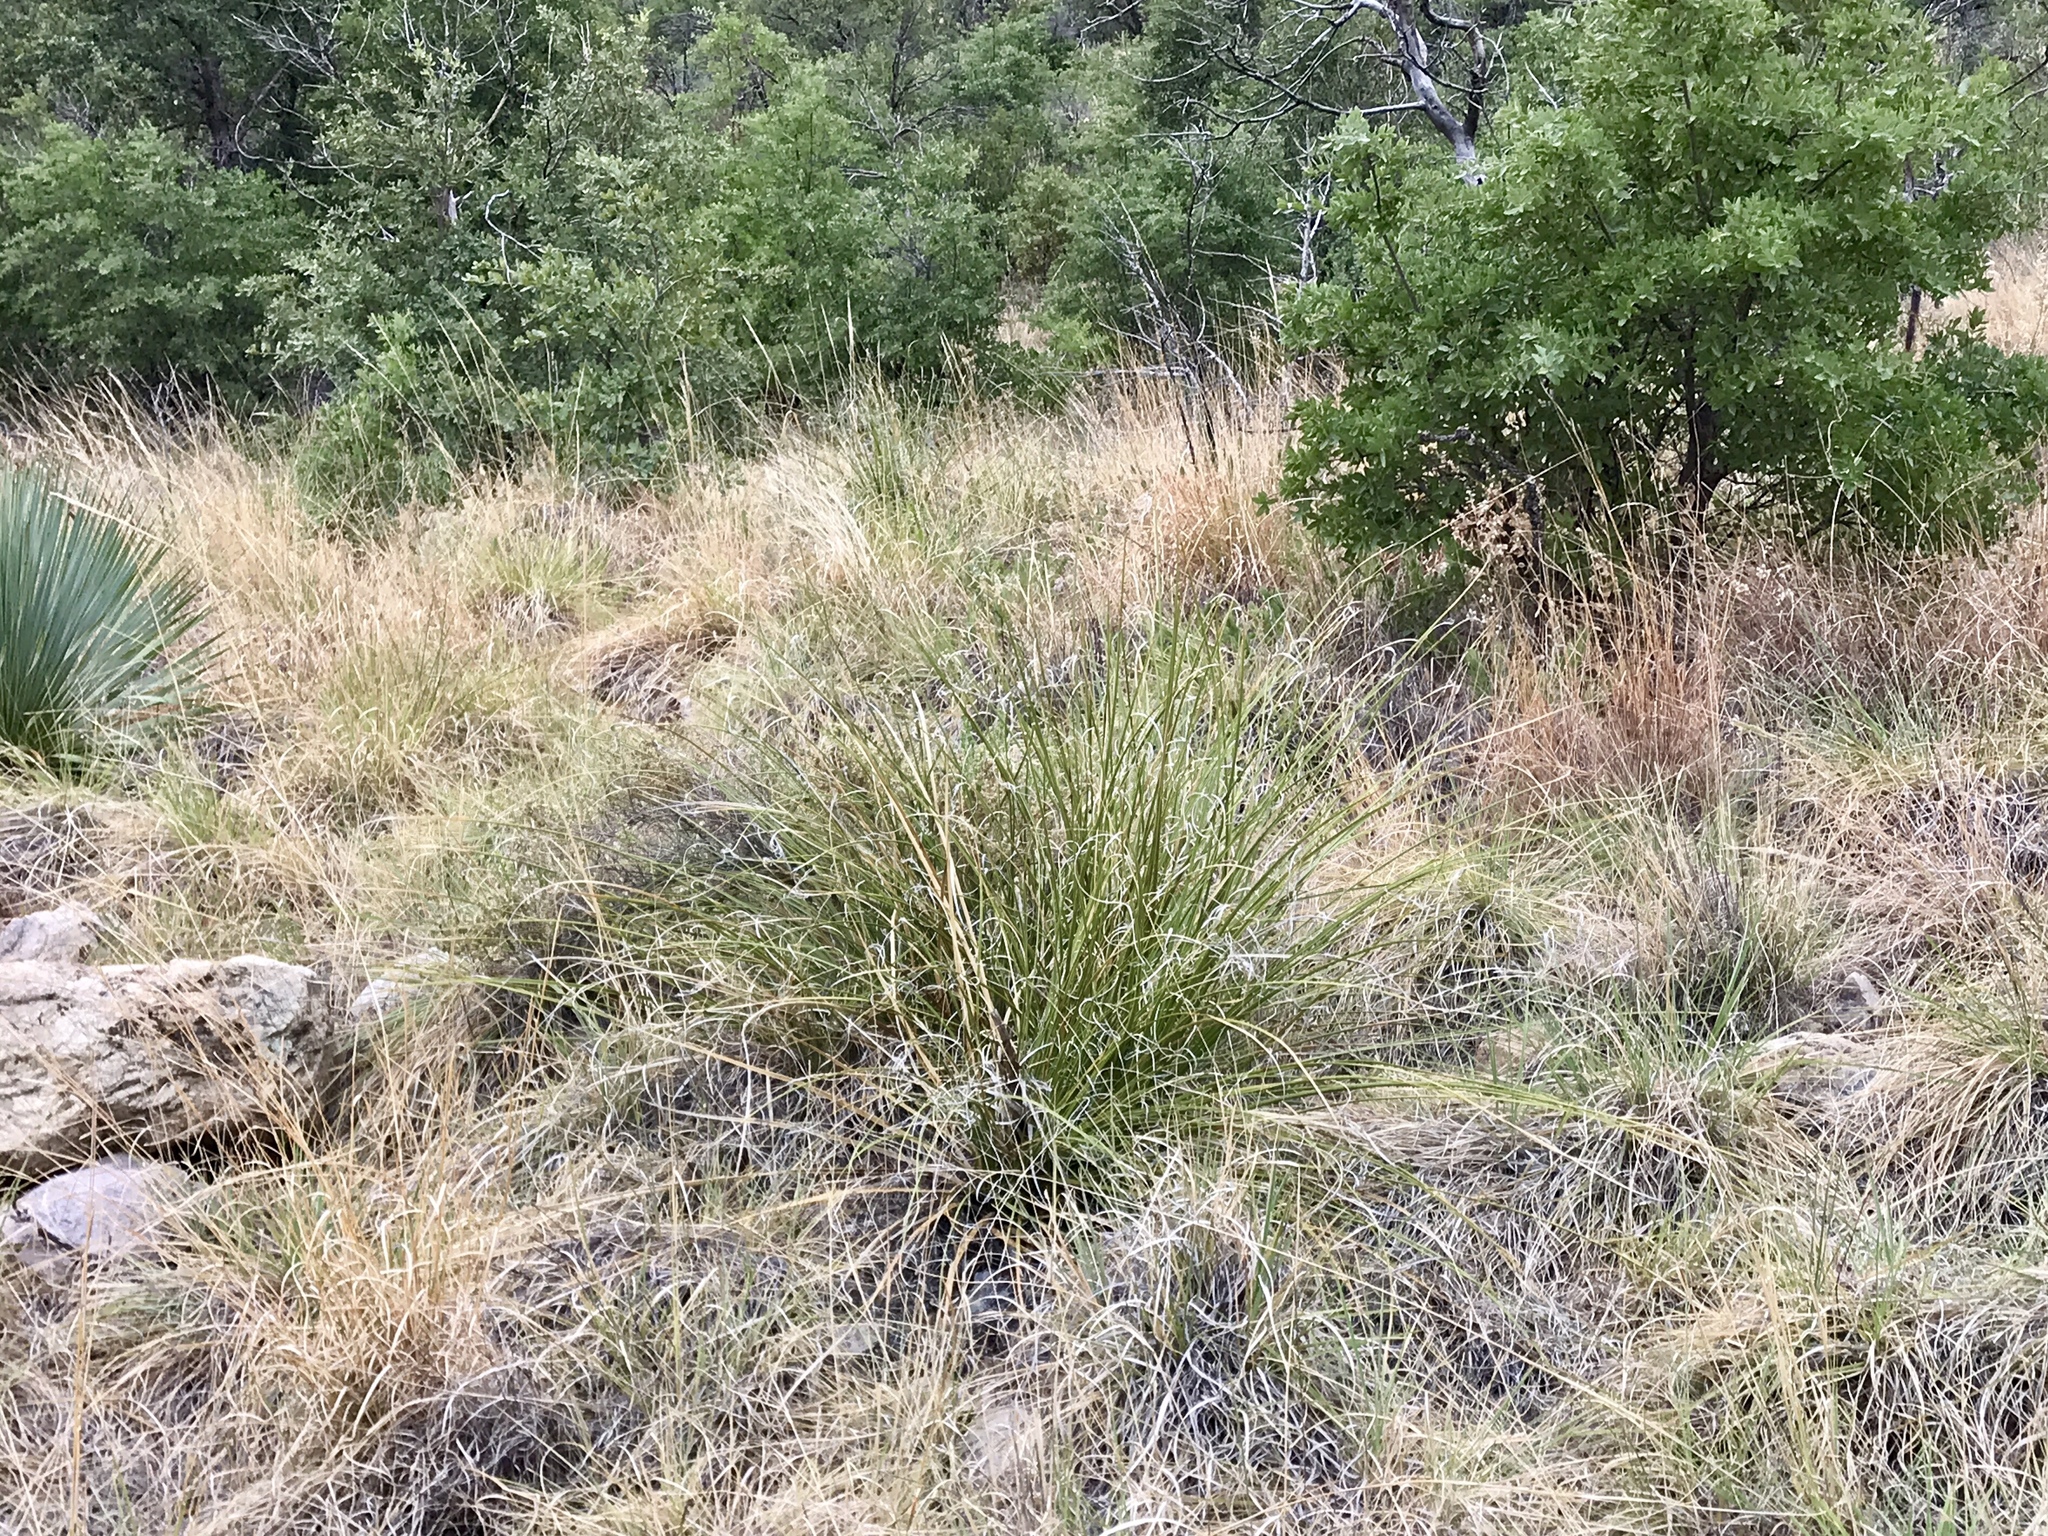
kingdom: Plantae
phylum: Tracheophyta
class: Liliopsida
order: Asparagales
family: Asparagaceae
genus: Nolina
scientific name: Nolina microcarpa
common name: Bear-grass
